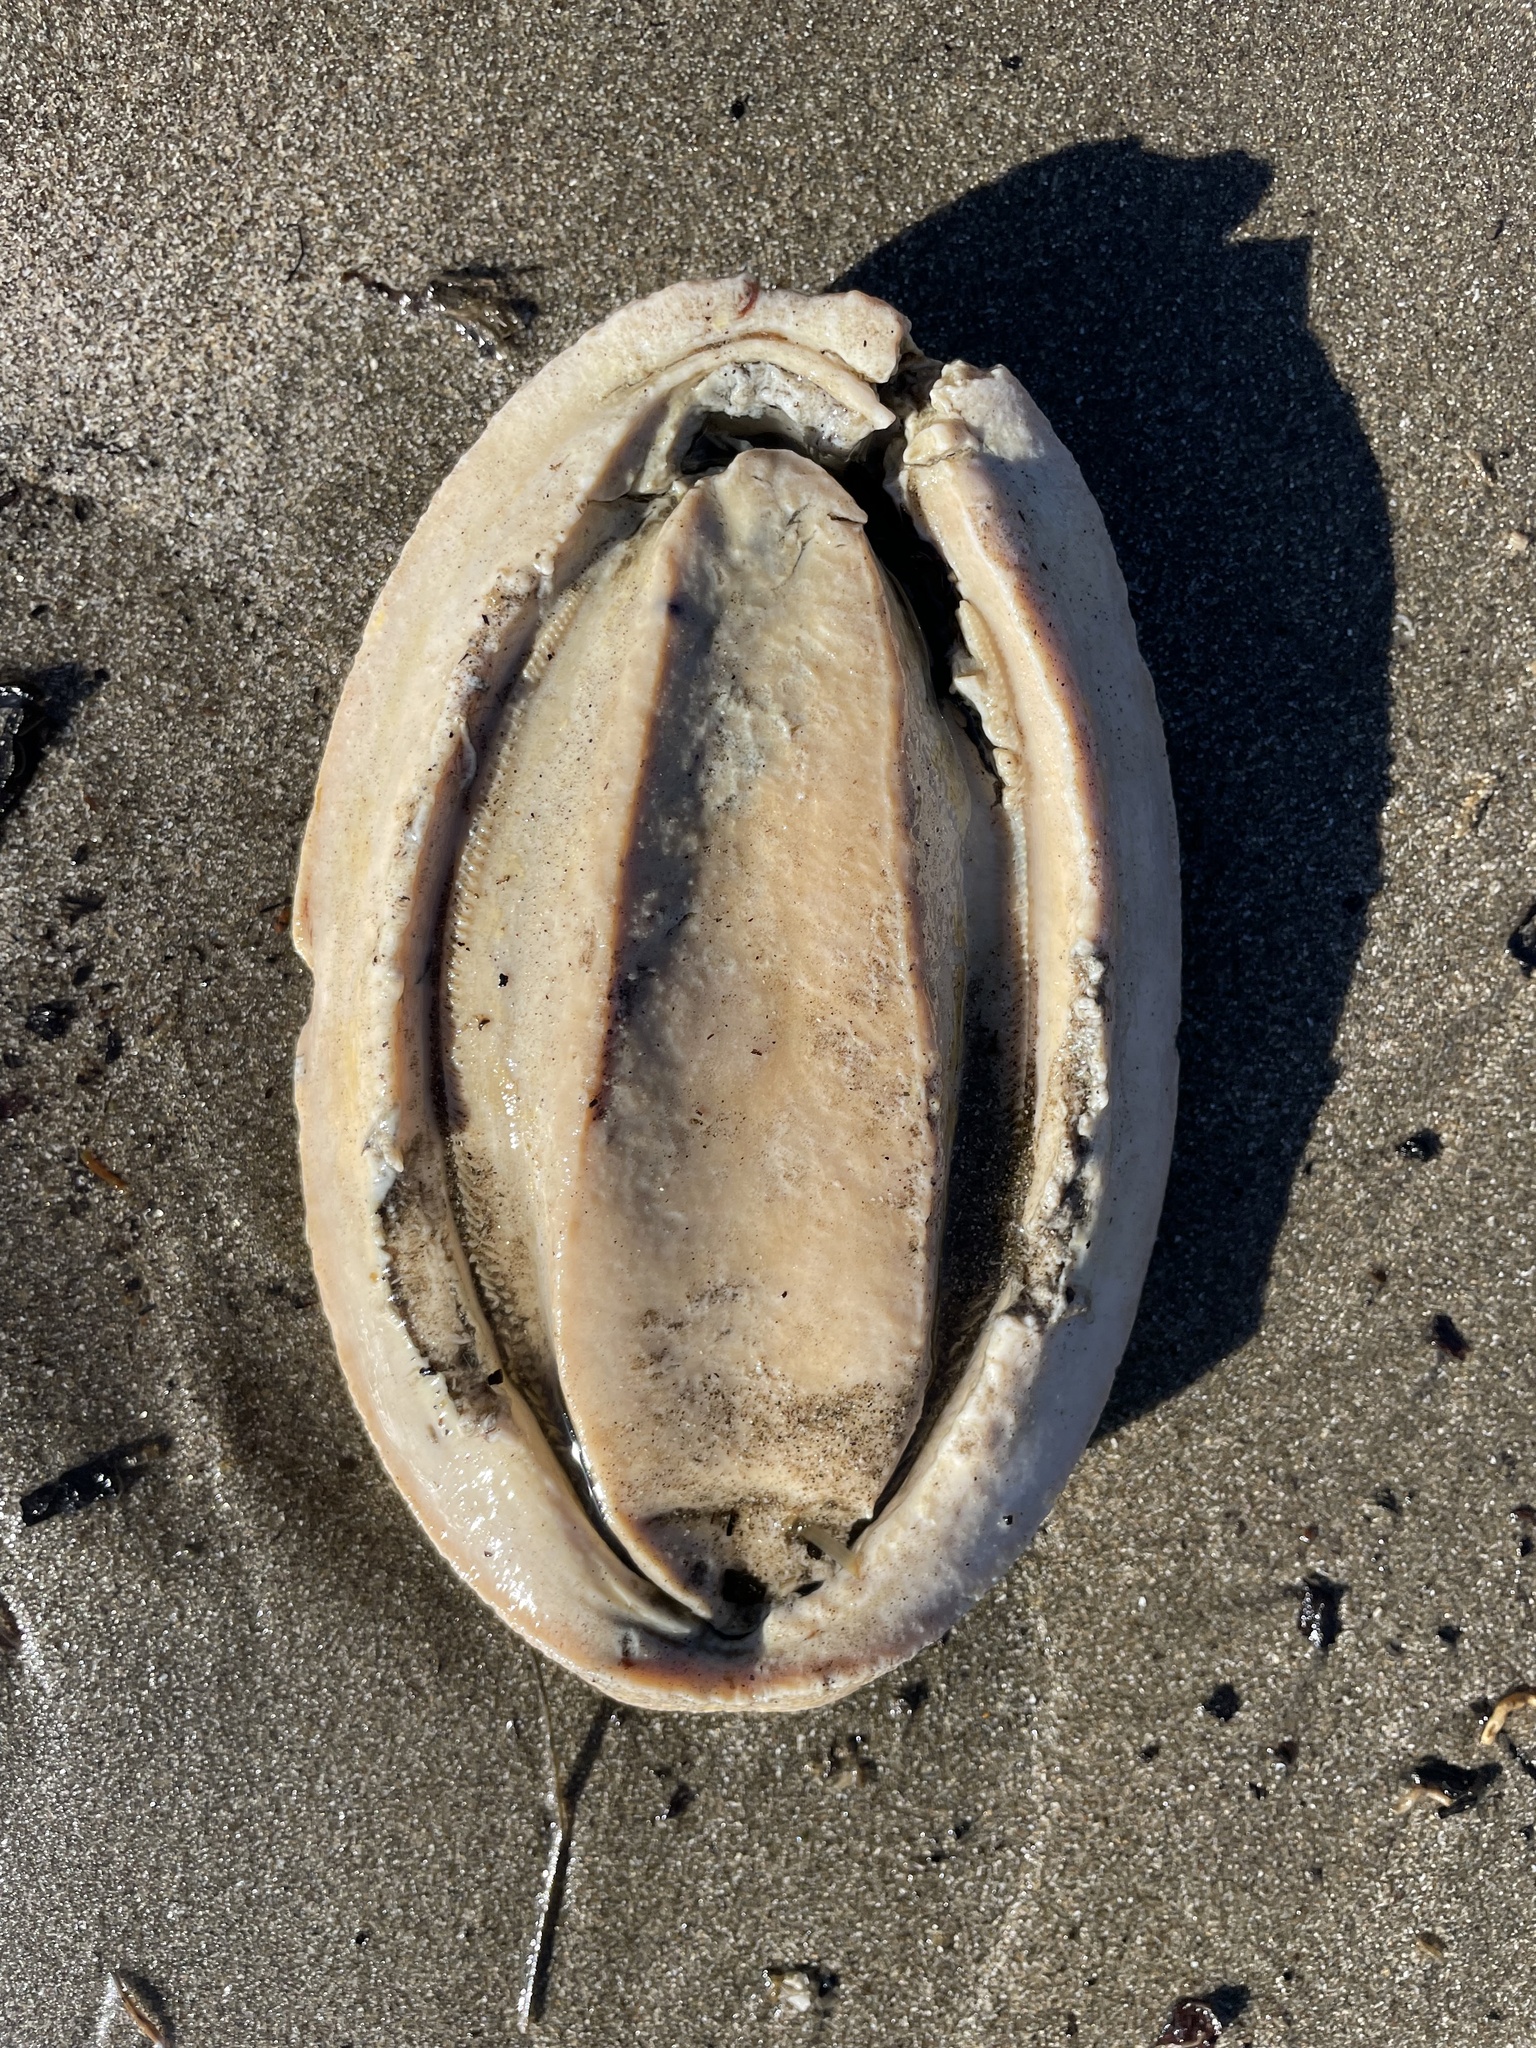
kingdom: Animalia
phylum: Mollusca
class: Polyplacophora
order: Chitonida
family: Acanthochitonidae
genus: Cryptochiton
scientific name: Cryptochiton stelleri
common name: Giant pacific chiton
